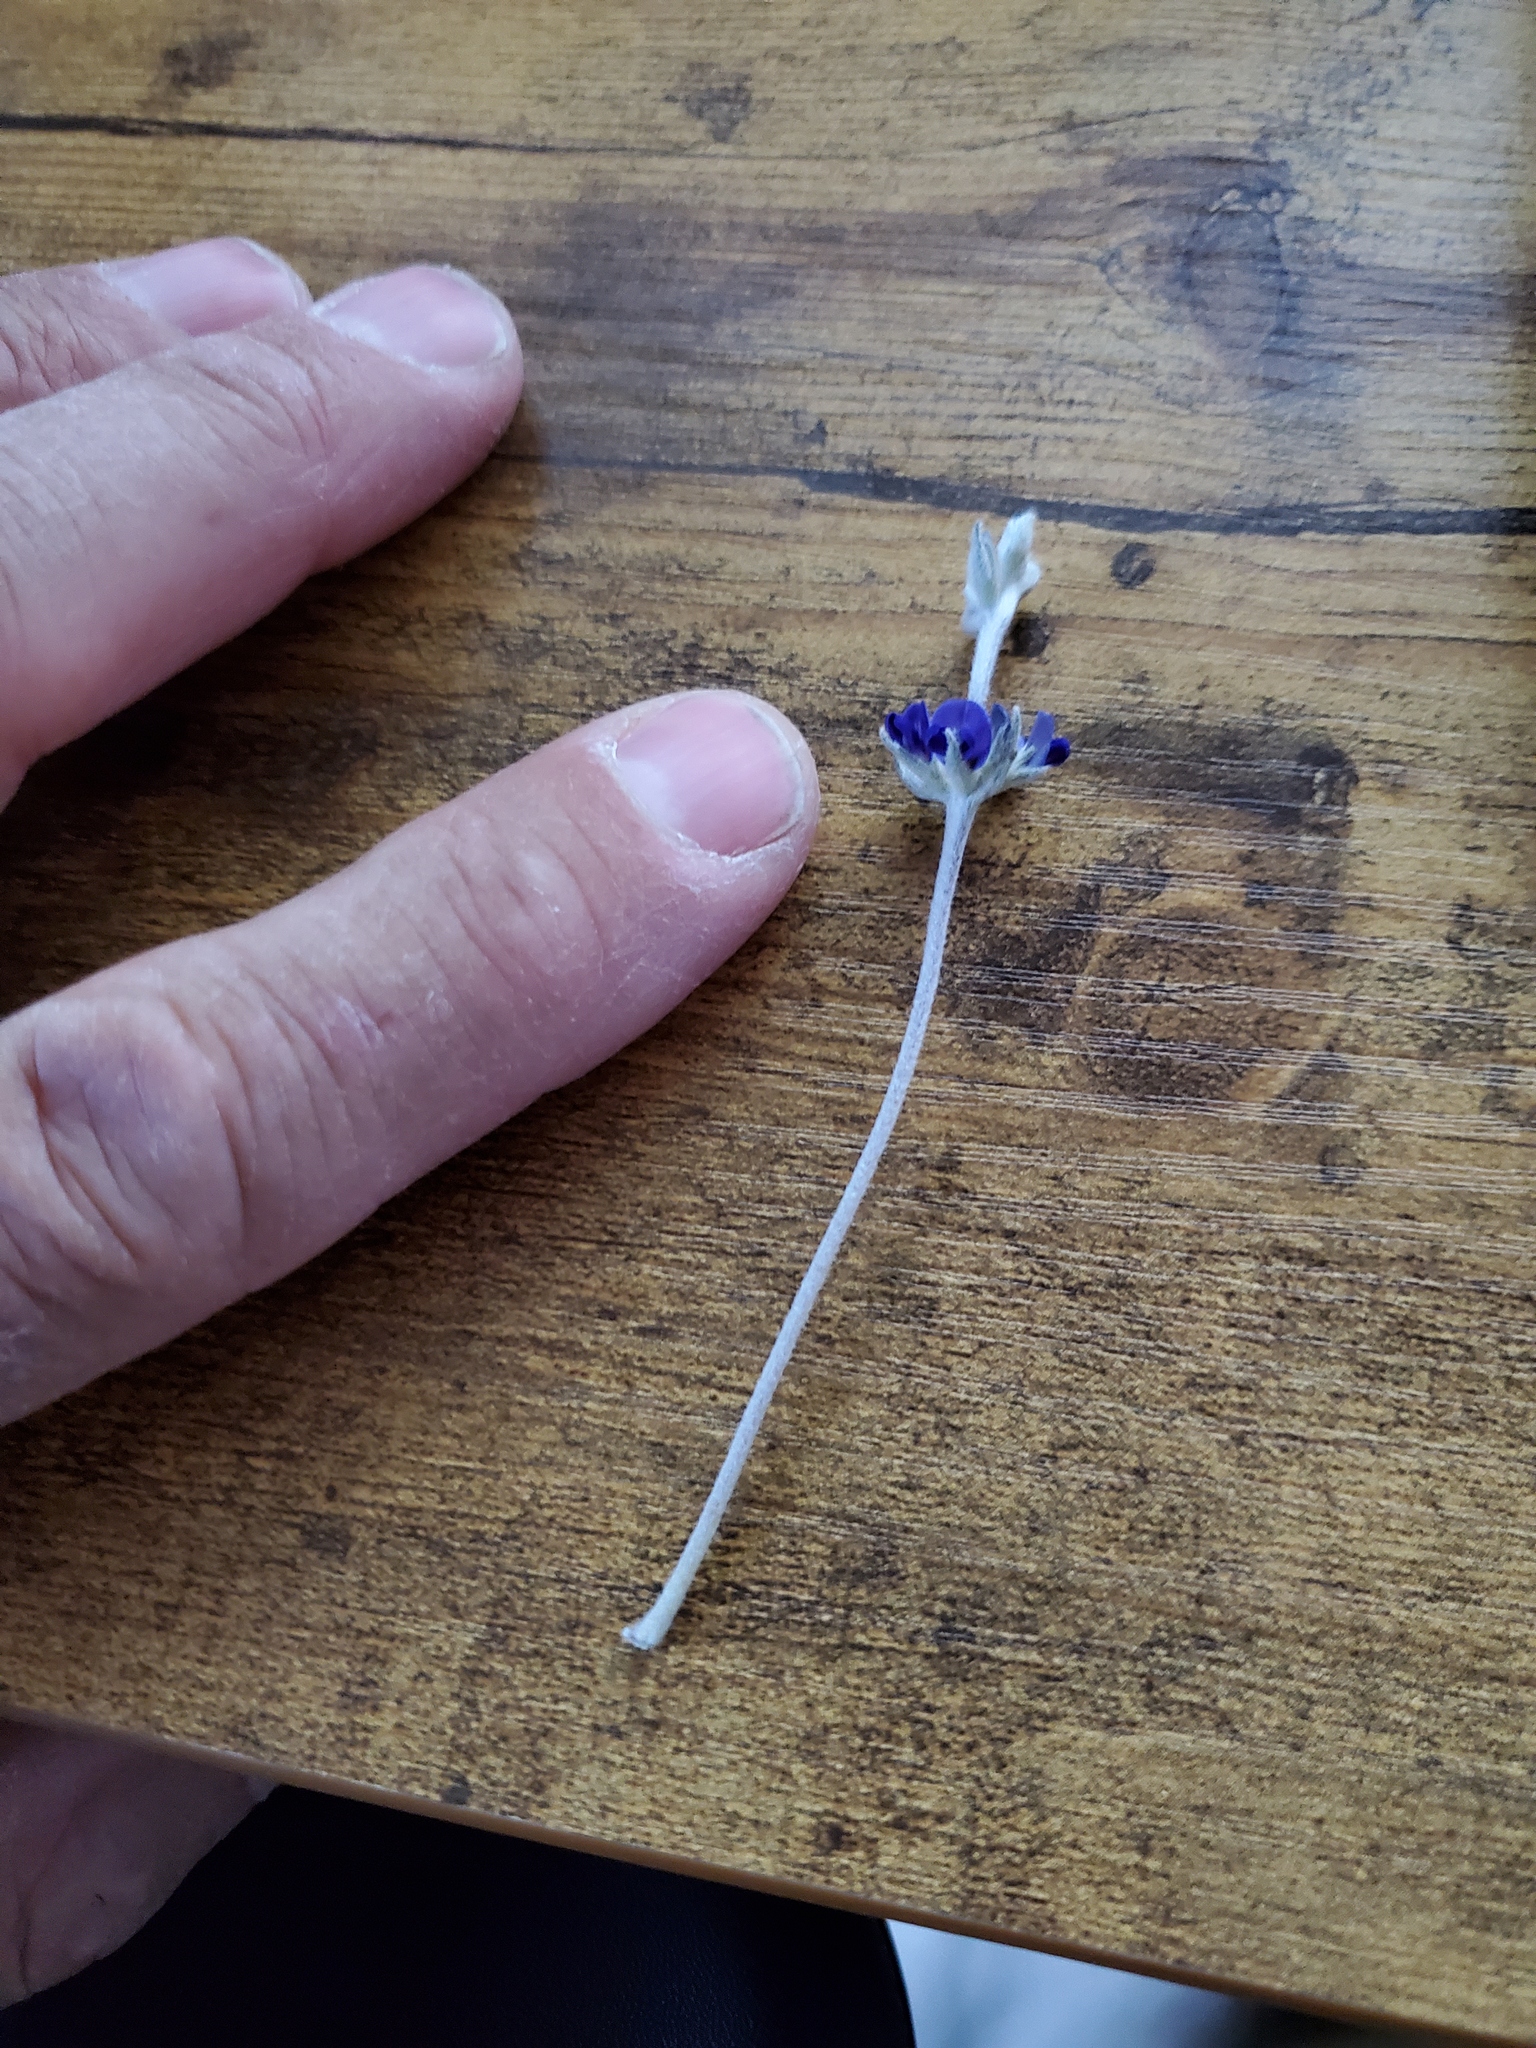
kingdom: Plantae
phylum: Tracheophyta
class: Magnoliopsida
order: Fabales
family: Fabaceae
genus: Pediomelum
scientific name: Pediomelum argophyllum
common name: Silver-leaved indian breadroot
